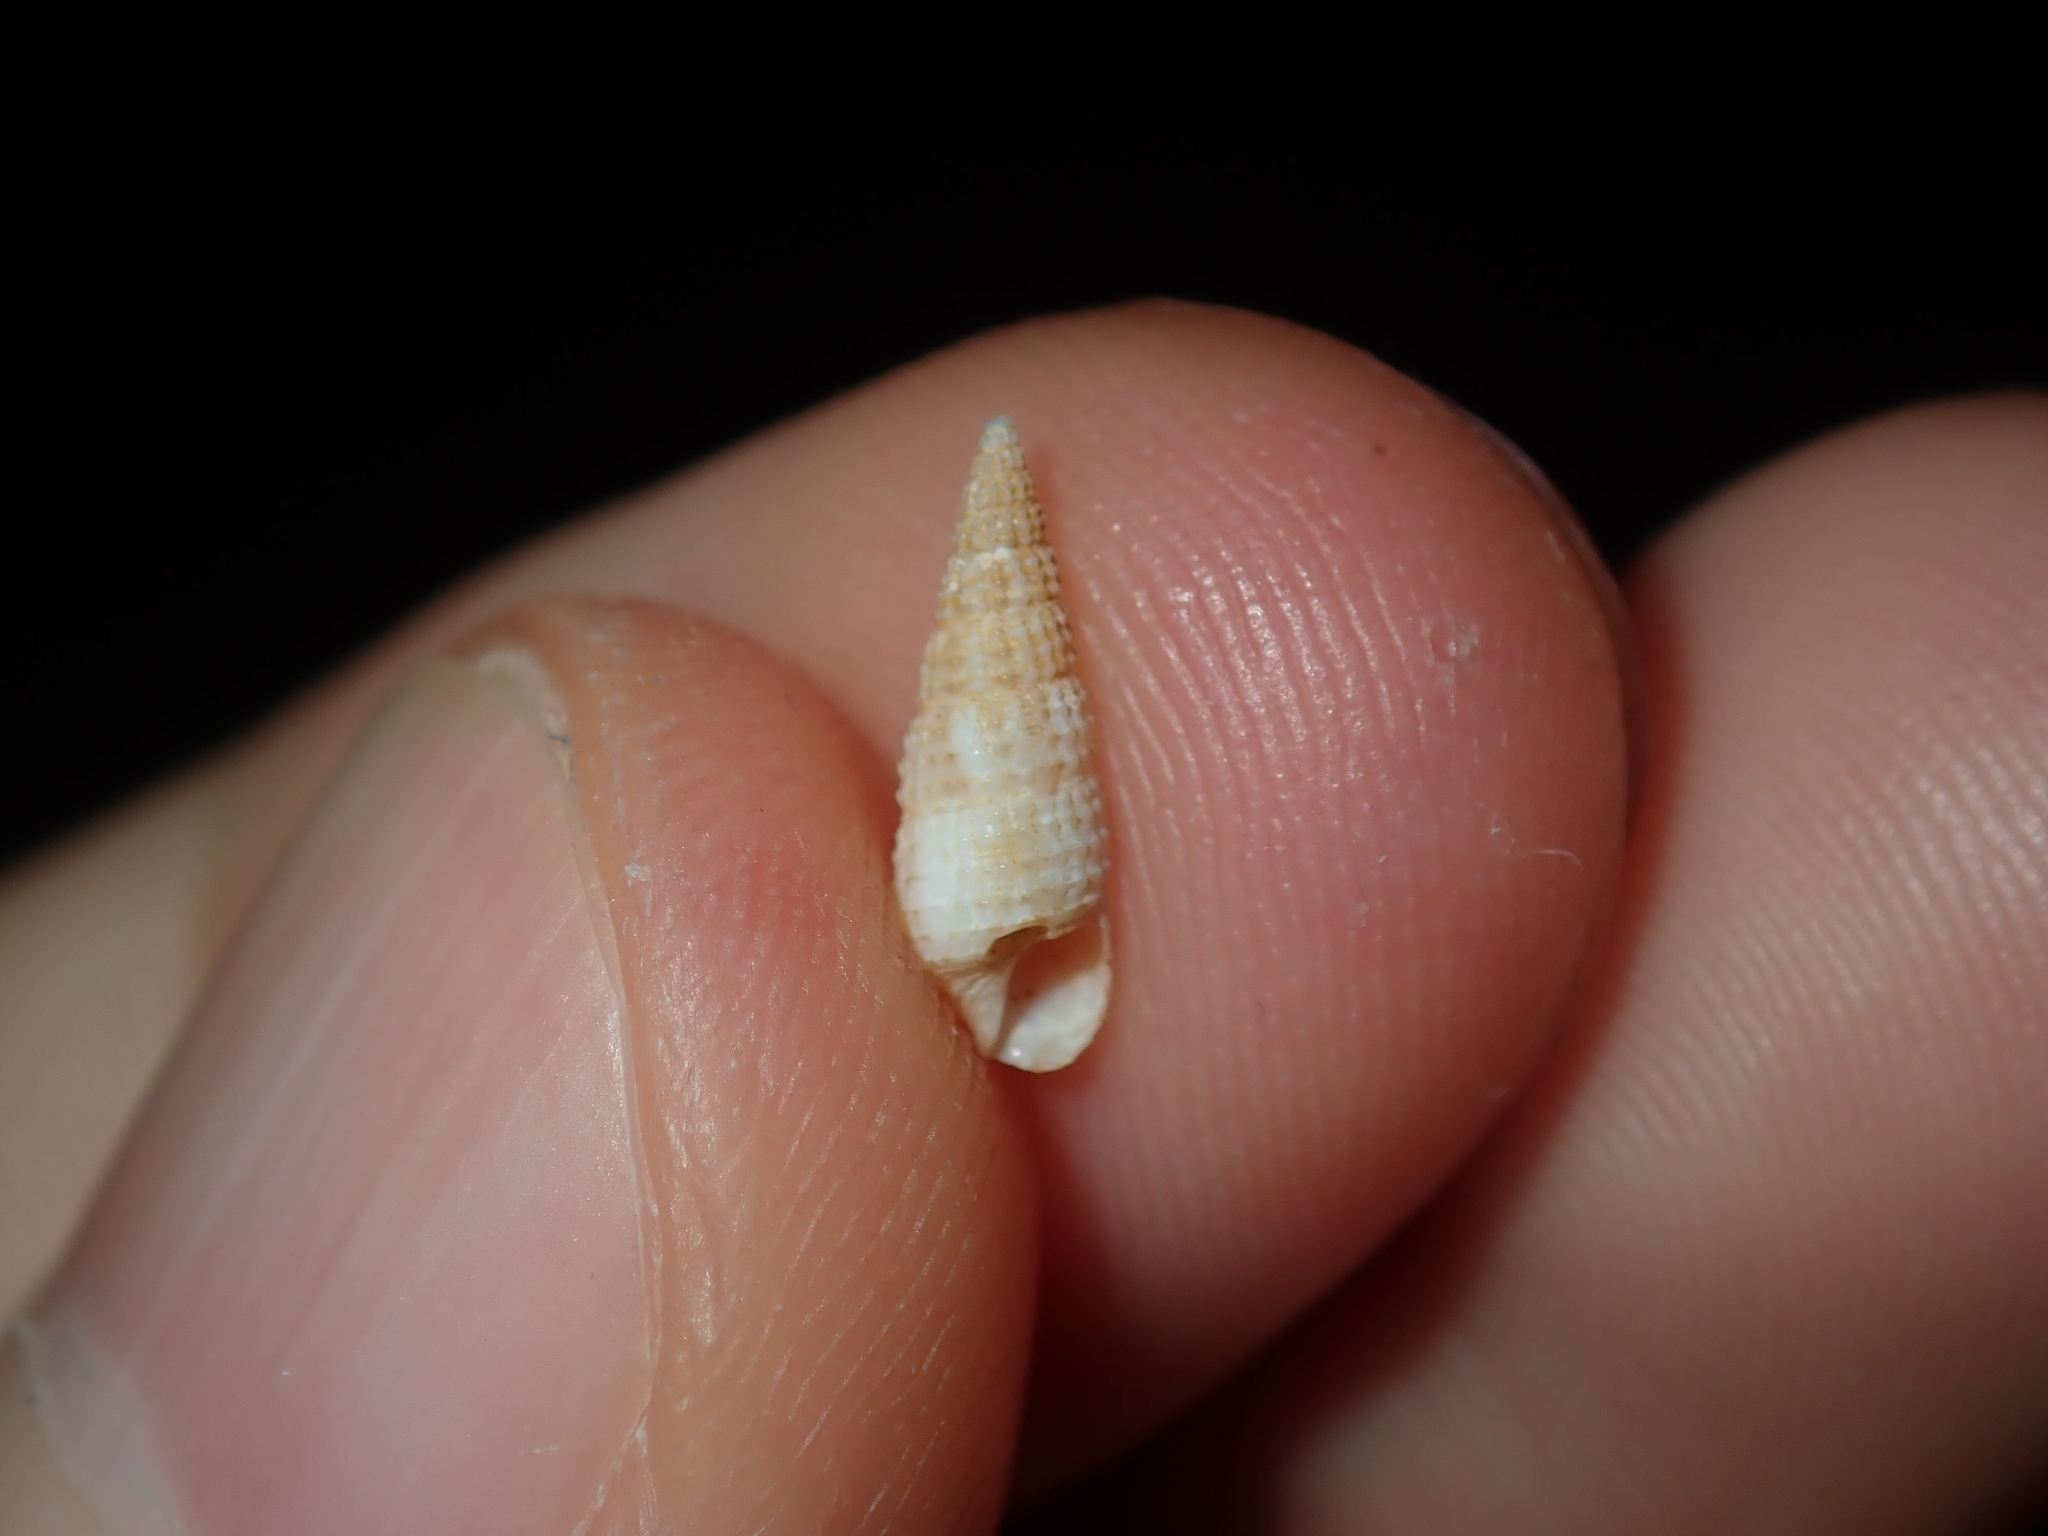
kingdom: Animalia
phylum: Mollusca
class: Gastropoda
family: Cerithiidae
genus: Cacozeliana
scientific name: Cacozeliana granarium
